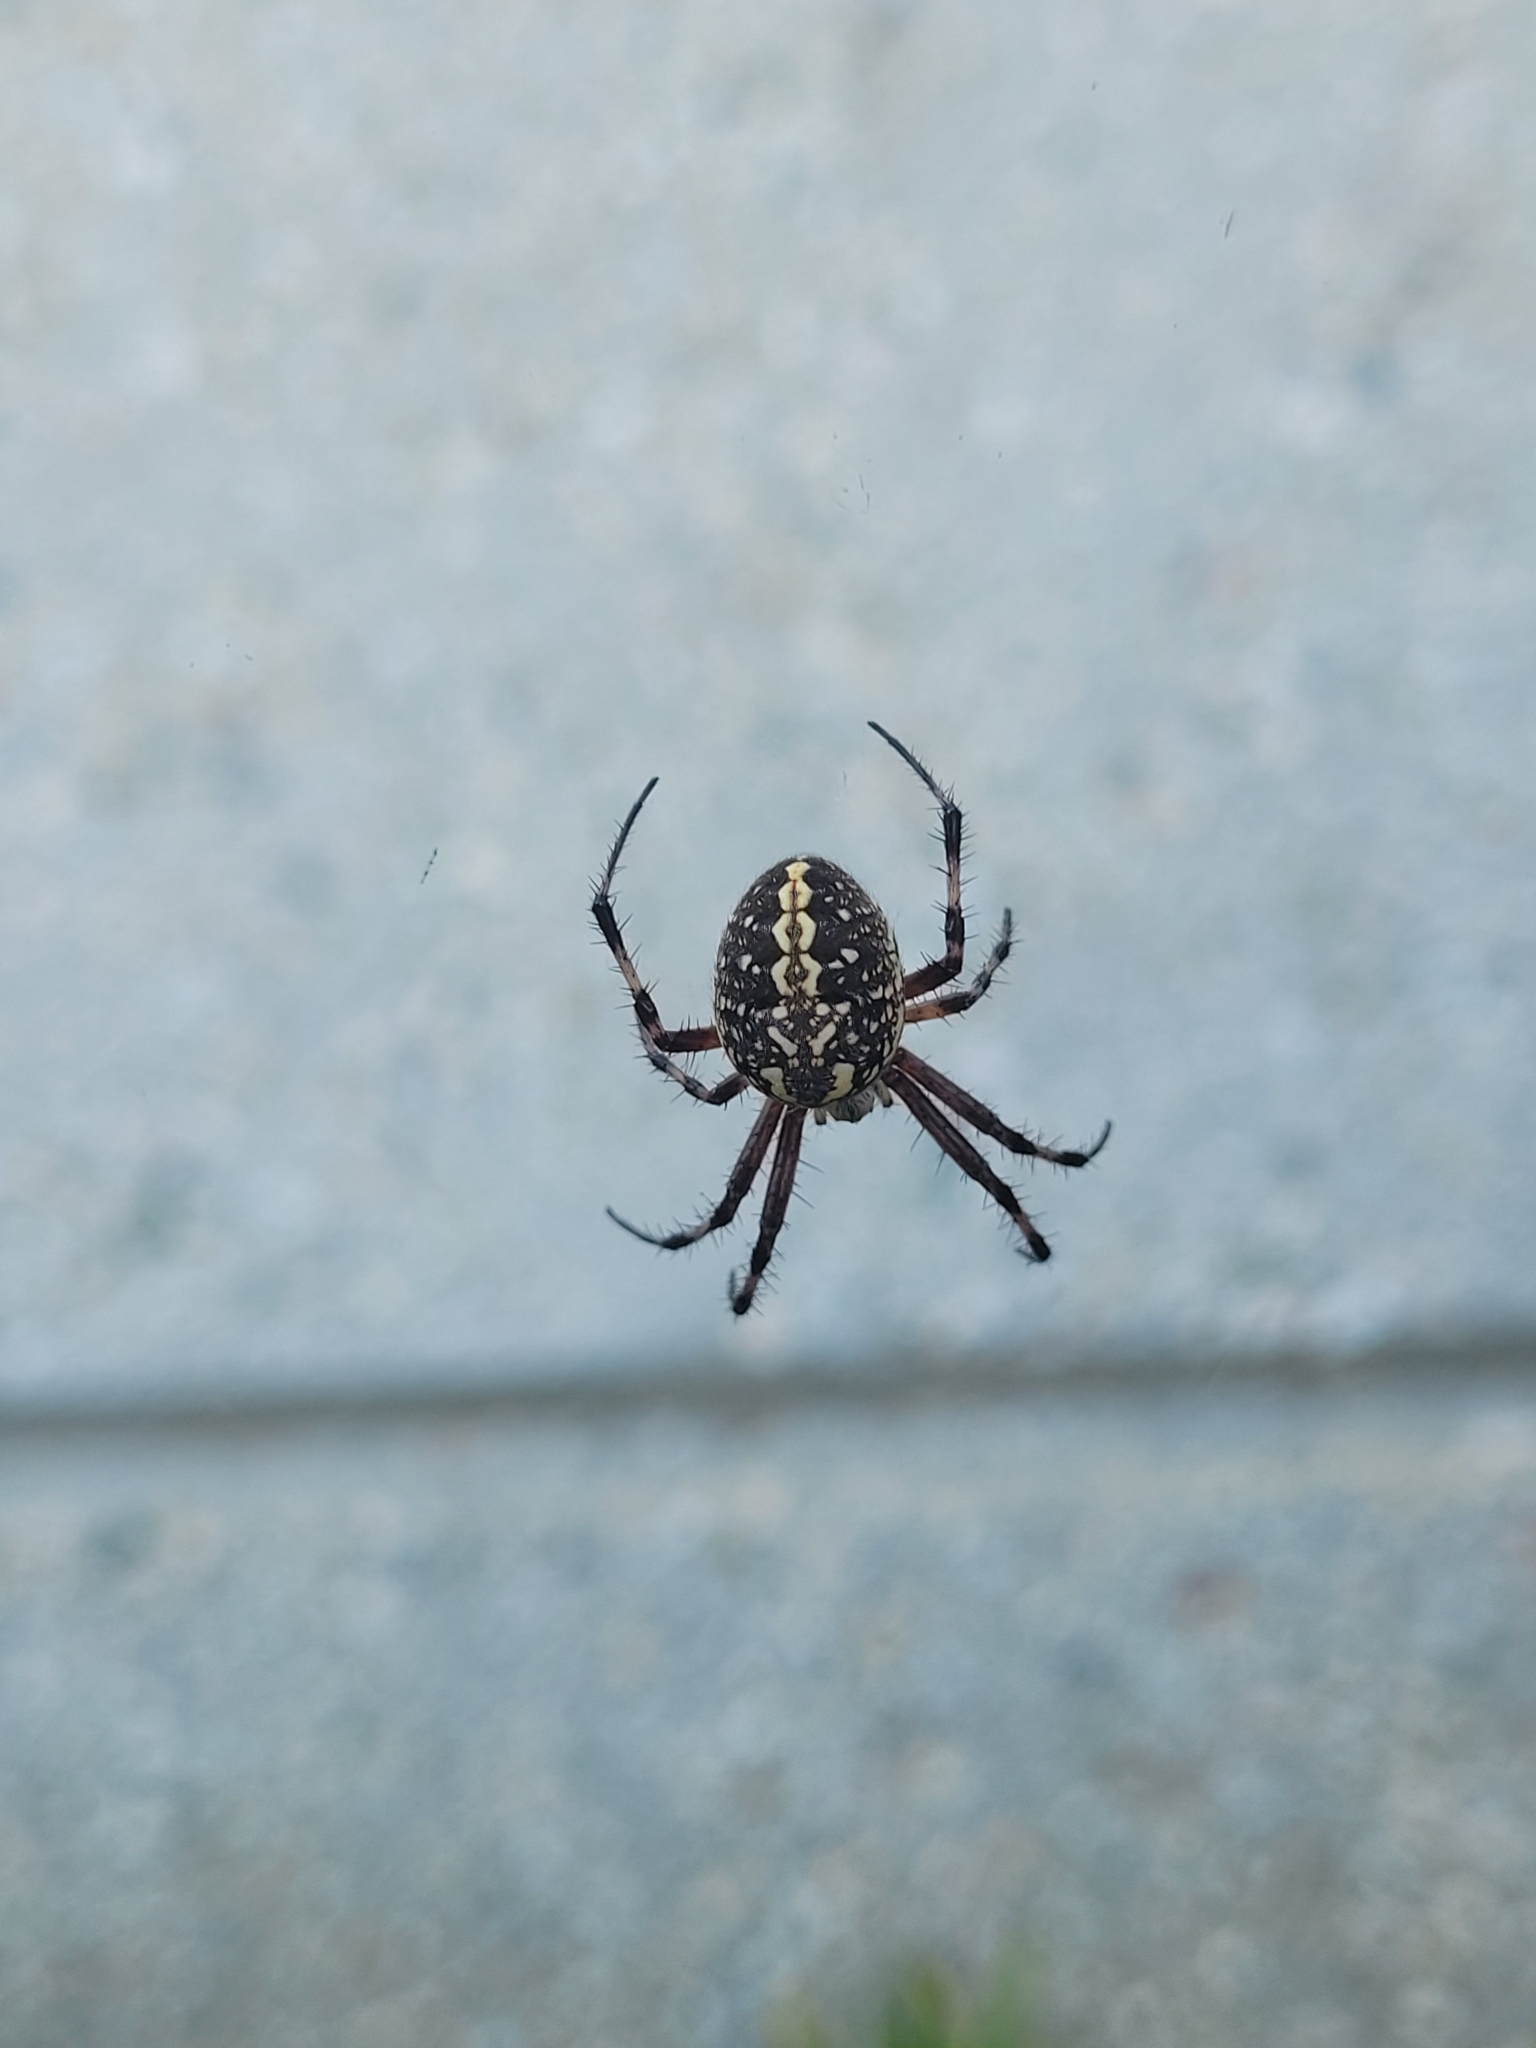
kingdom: Animalia
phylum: Arthropoda
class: Arachnida
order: Araneae
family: Araneidae
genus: Neoscona
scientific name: Neoscona oaxacensis
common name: Orb weavers
